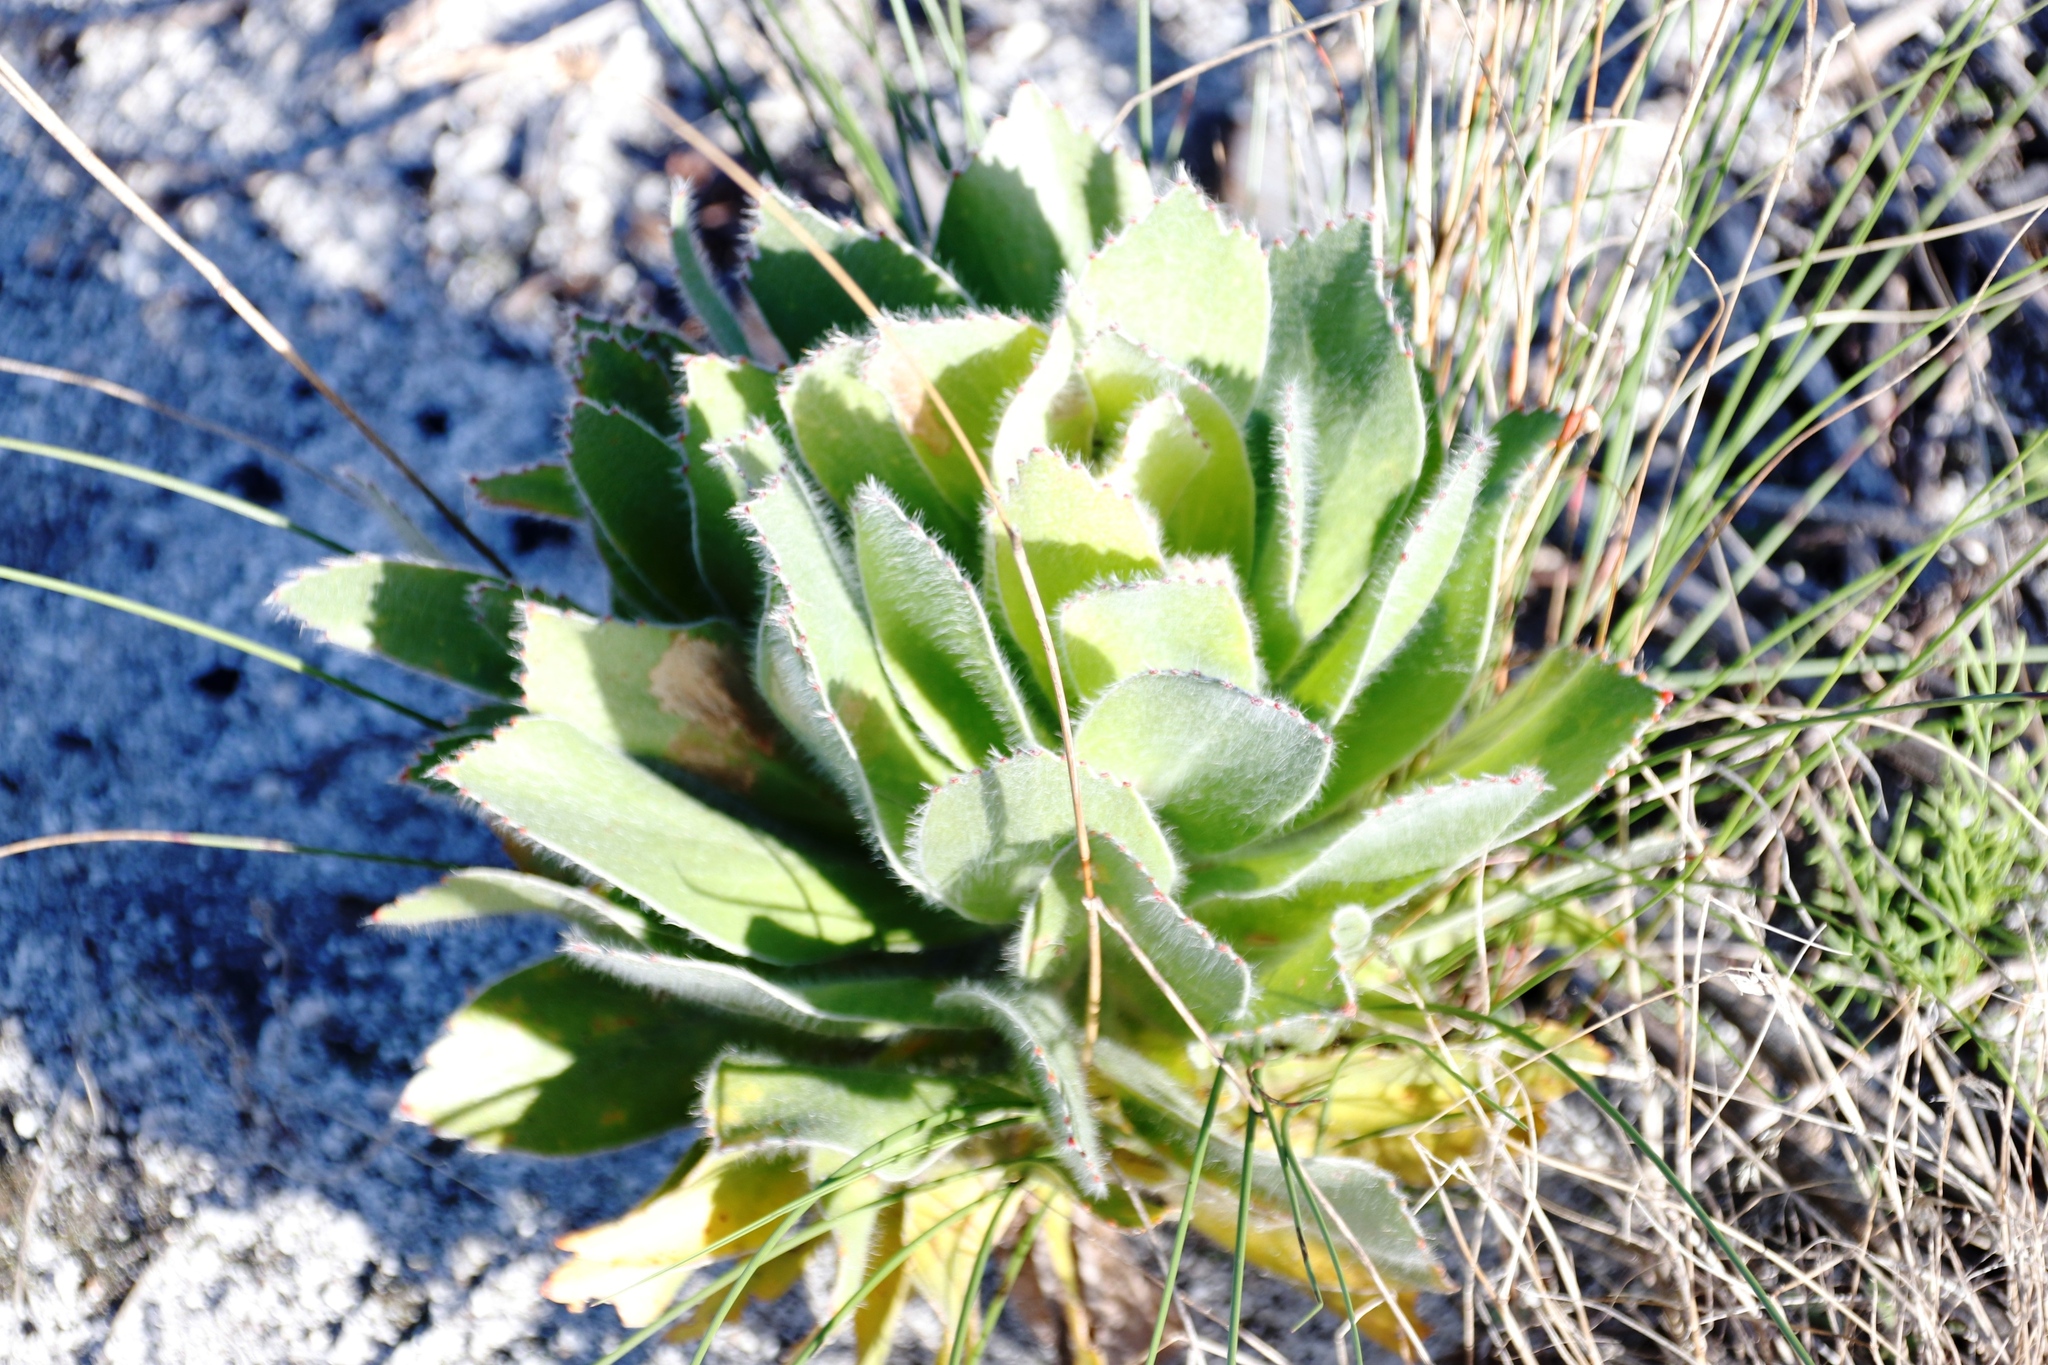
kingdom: Plantae
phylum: Tracheophyta
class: Magnoliopsida
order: Proteales
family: Proteaceae
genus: Leucospermum
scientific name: Leucospermum conocarpodendron
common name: Tree pincushion
